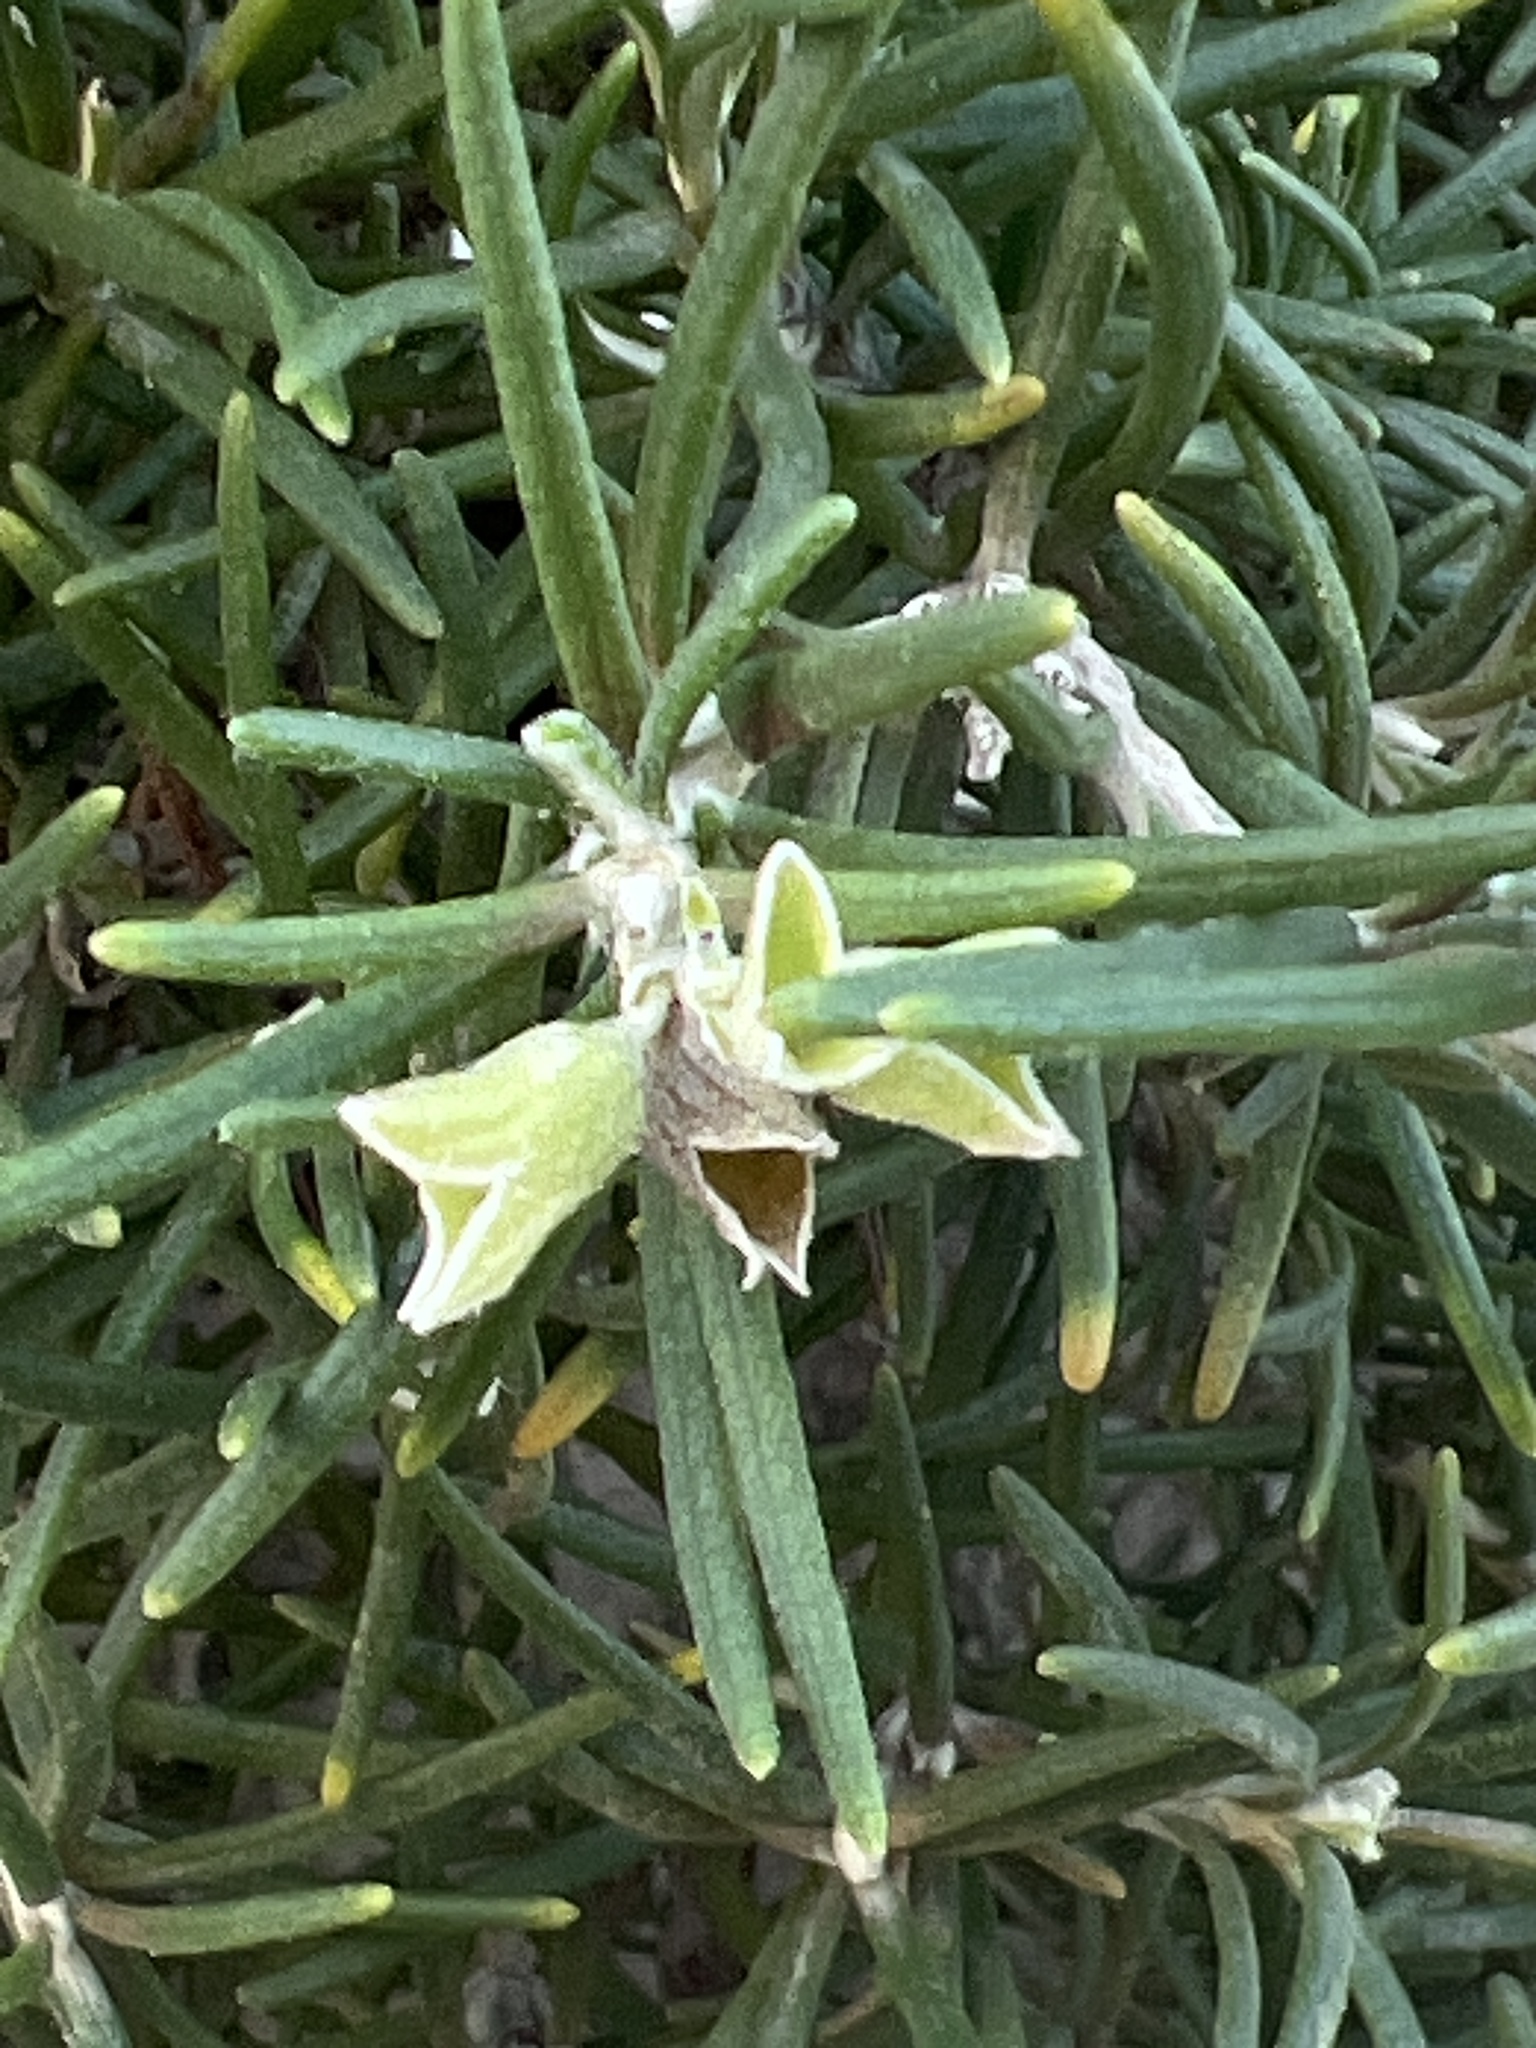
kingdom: Plantae
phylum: Tracheophyta
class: Magnoliopsida
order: Lamiales
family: Lamiaceae
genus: Salvia
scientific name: Salvia rosmarinus
